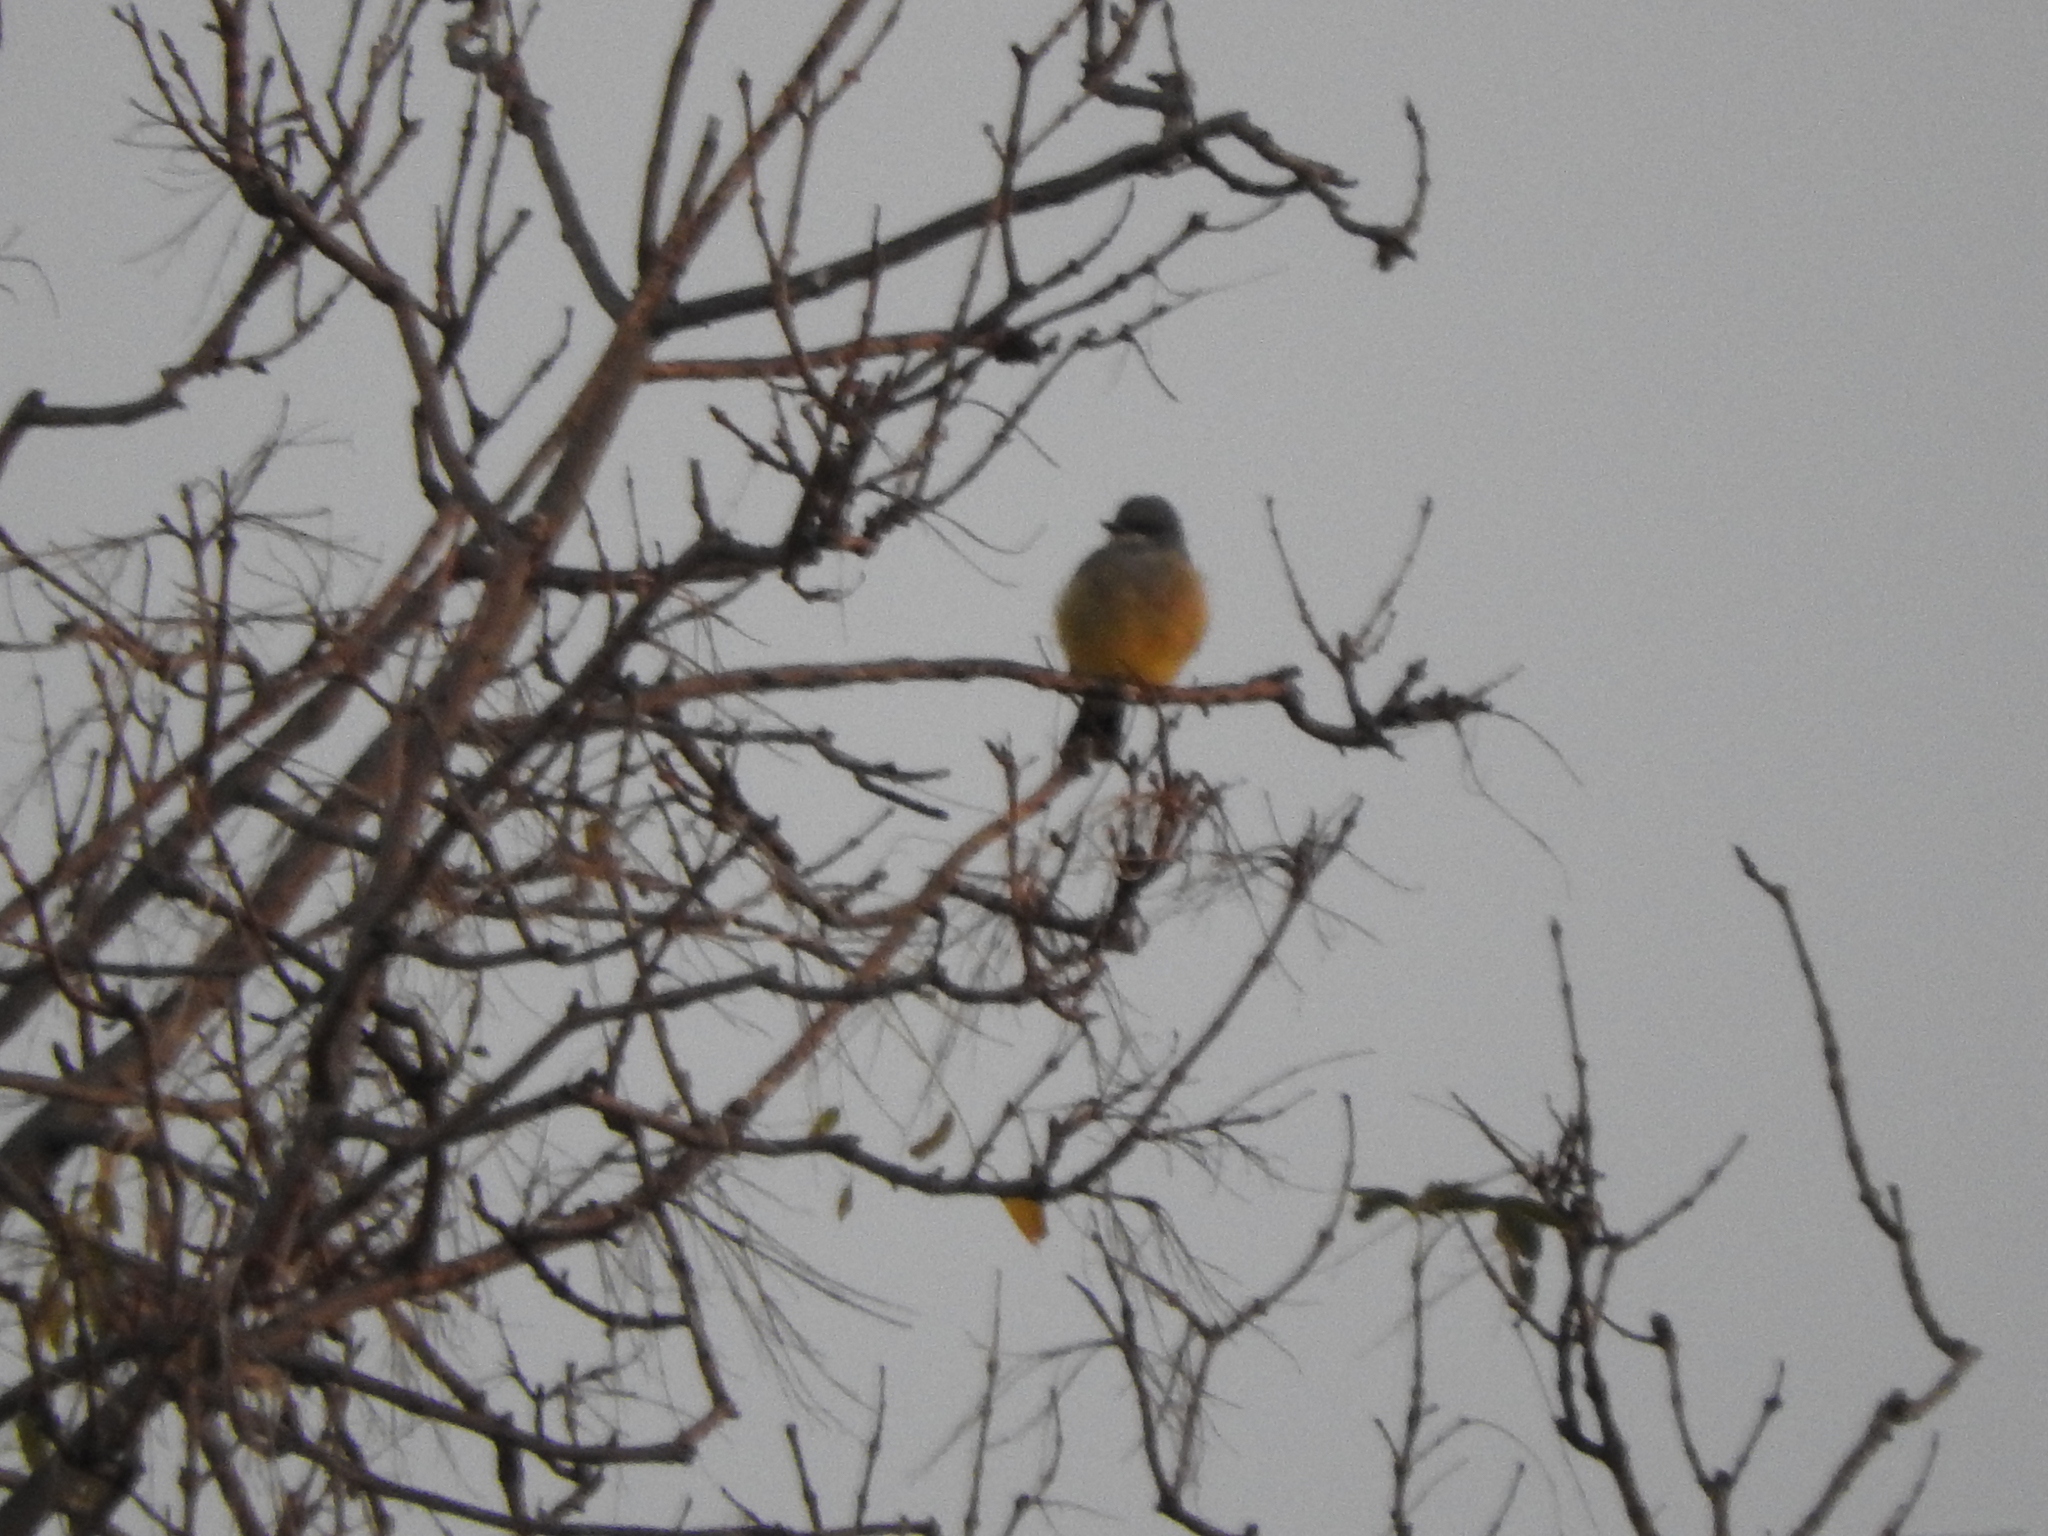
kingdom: Animalia
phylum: Chordata
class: Aves
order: Passeriformes
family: Tyrannidae
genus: Tyrannus
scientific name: Tyrannus vociferans
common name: Cassin's kingbird
